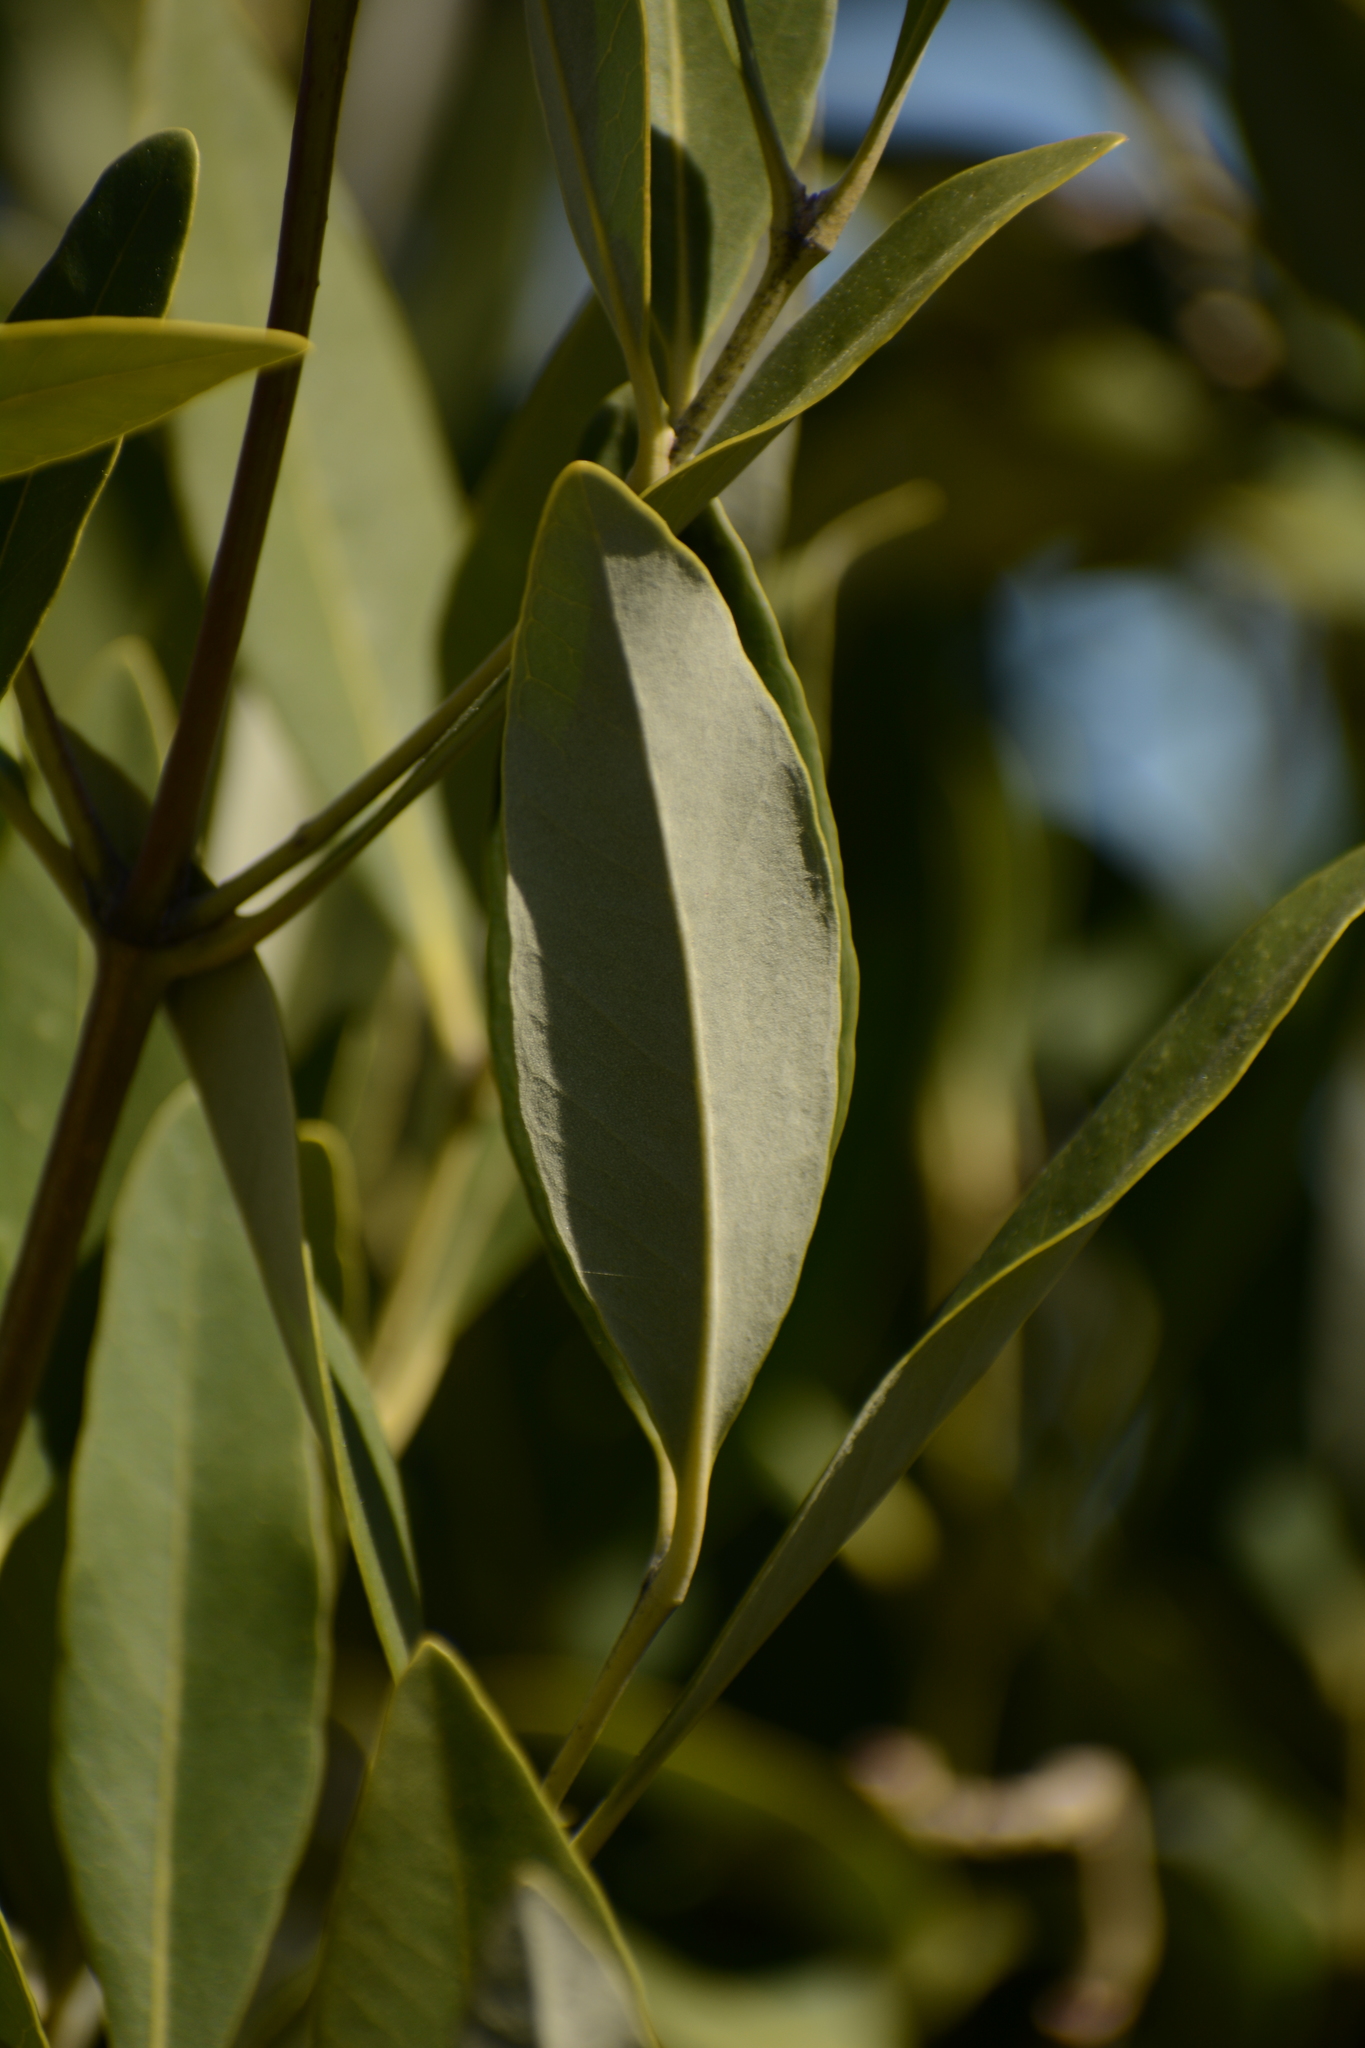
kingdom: Plantae
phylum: Tracheophyta
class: Magnoliopsida
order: Lamiales
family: Acanthaceae
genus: Avicennia
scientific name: Avicennia germinans
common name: Black mangrove
